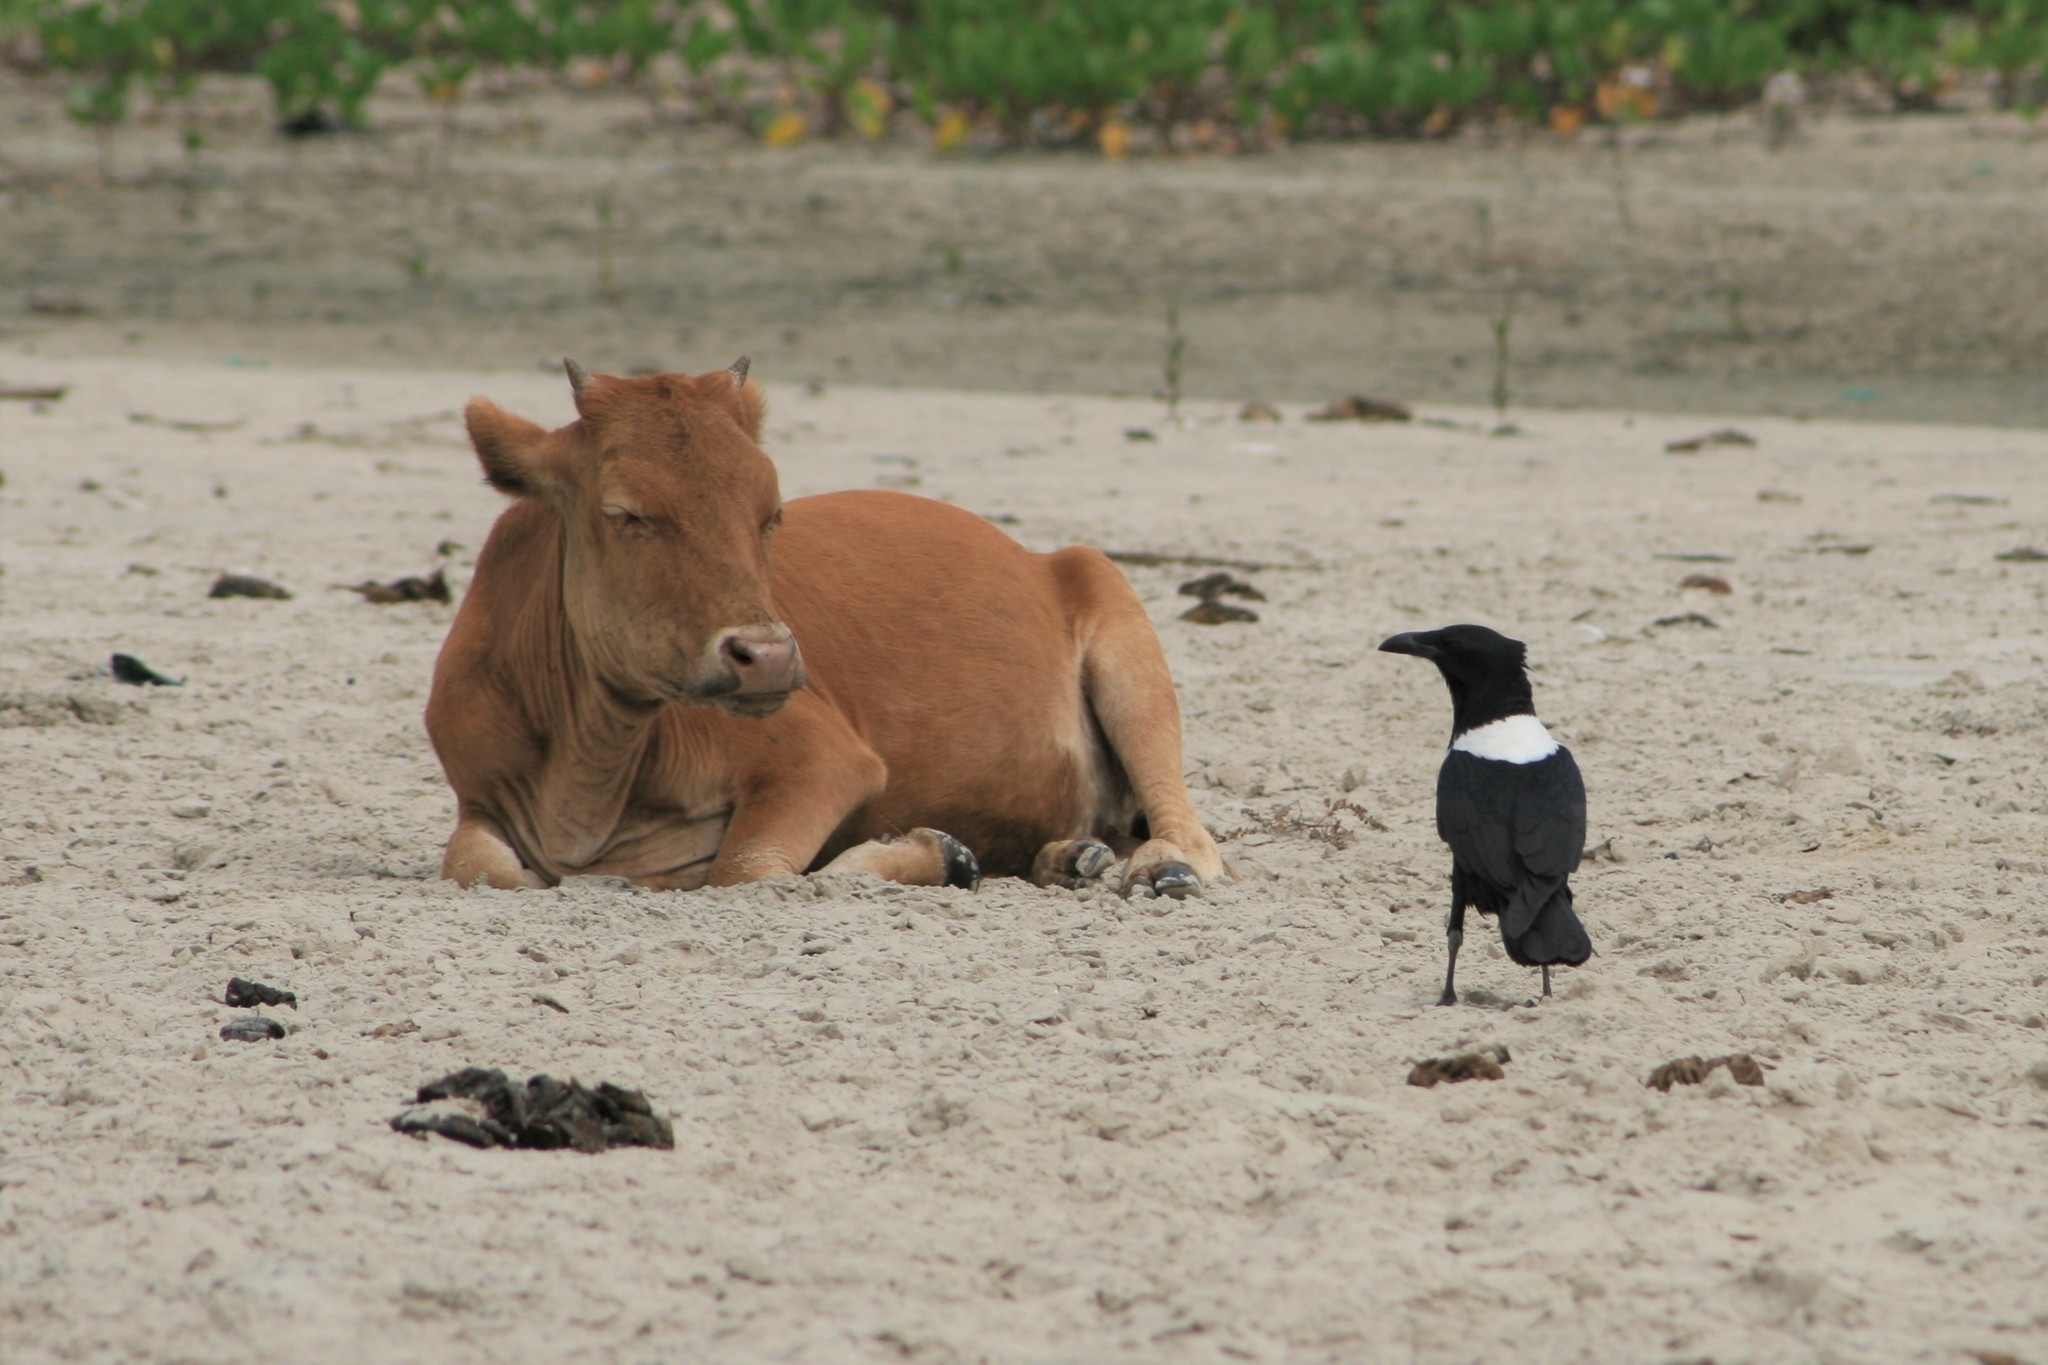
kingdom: Animalia
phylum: Chordata
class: Aves
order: Passeriformes
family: Corvidae
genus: Corvus
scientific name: Corvus albus
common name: Pied crow
